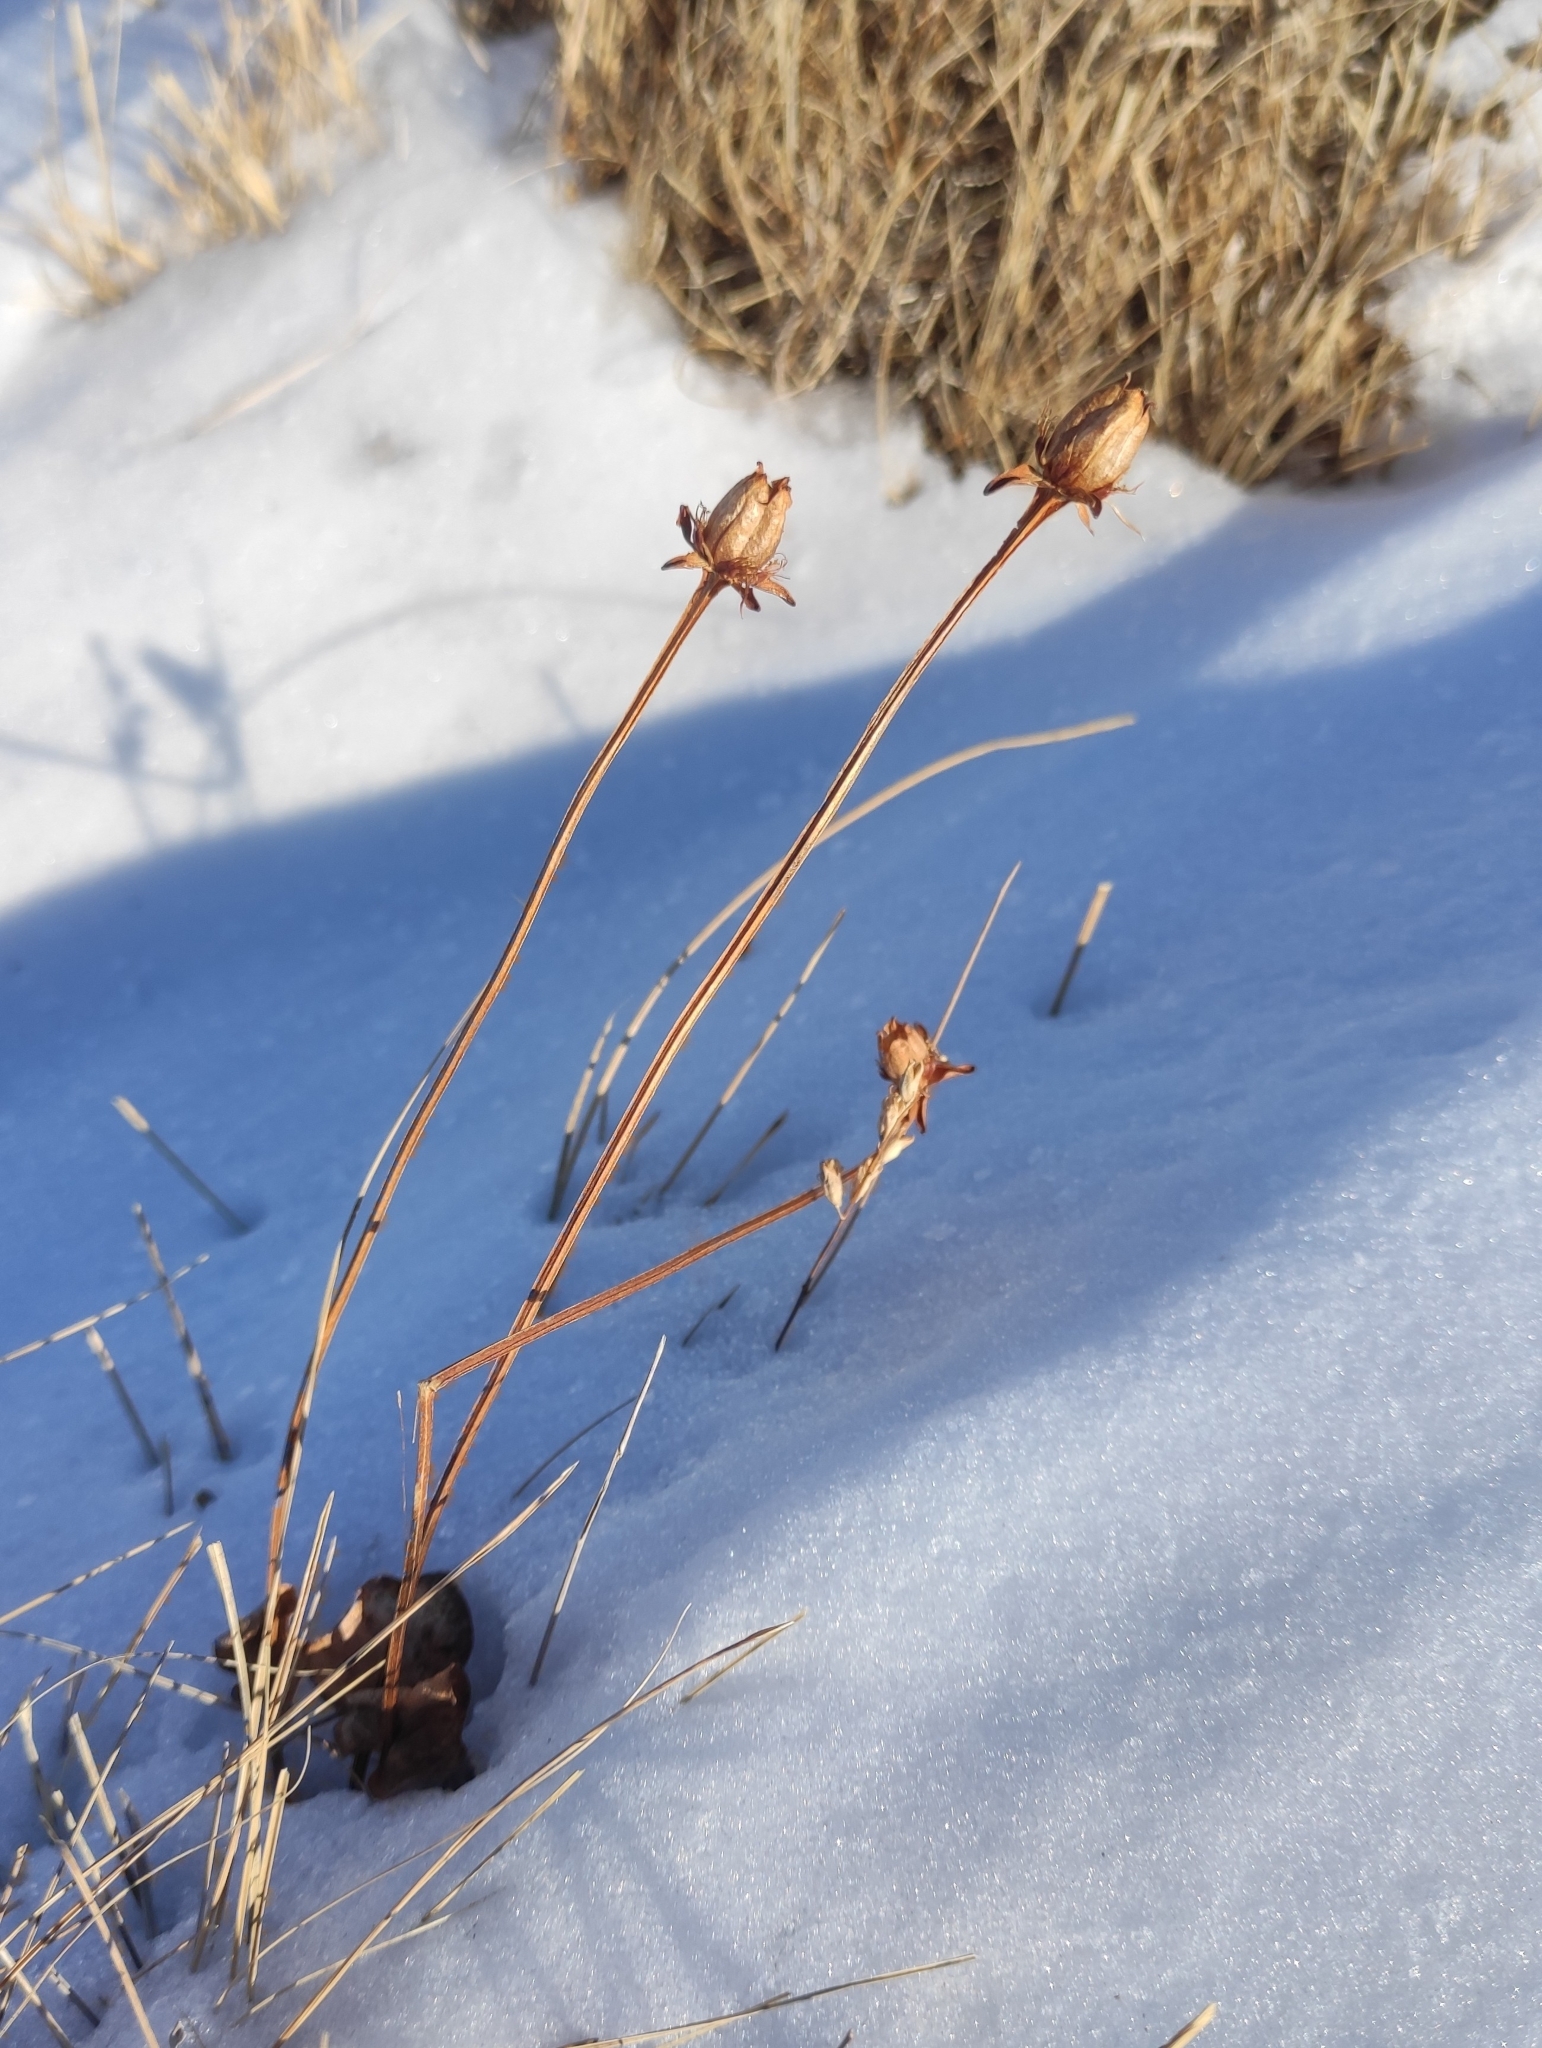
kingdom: Plantae
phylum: Tracheophyta
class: Magnoliopsida
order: Celastrales
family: Parnassiaceae
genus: Parnassia
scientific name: Parnassia palustris
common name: Grass-of-parnassus
